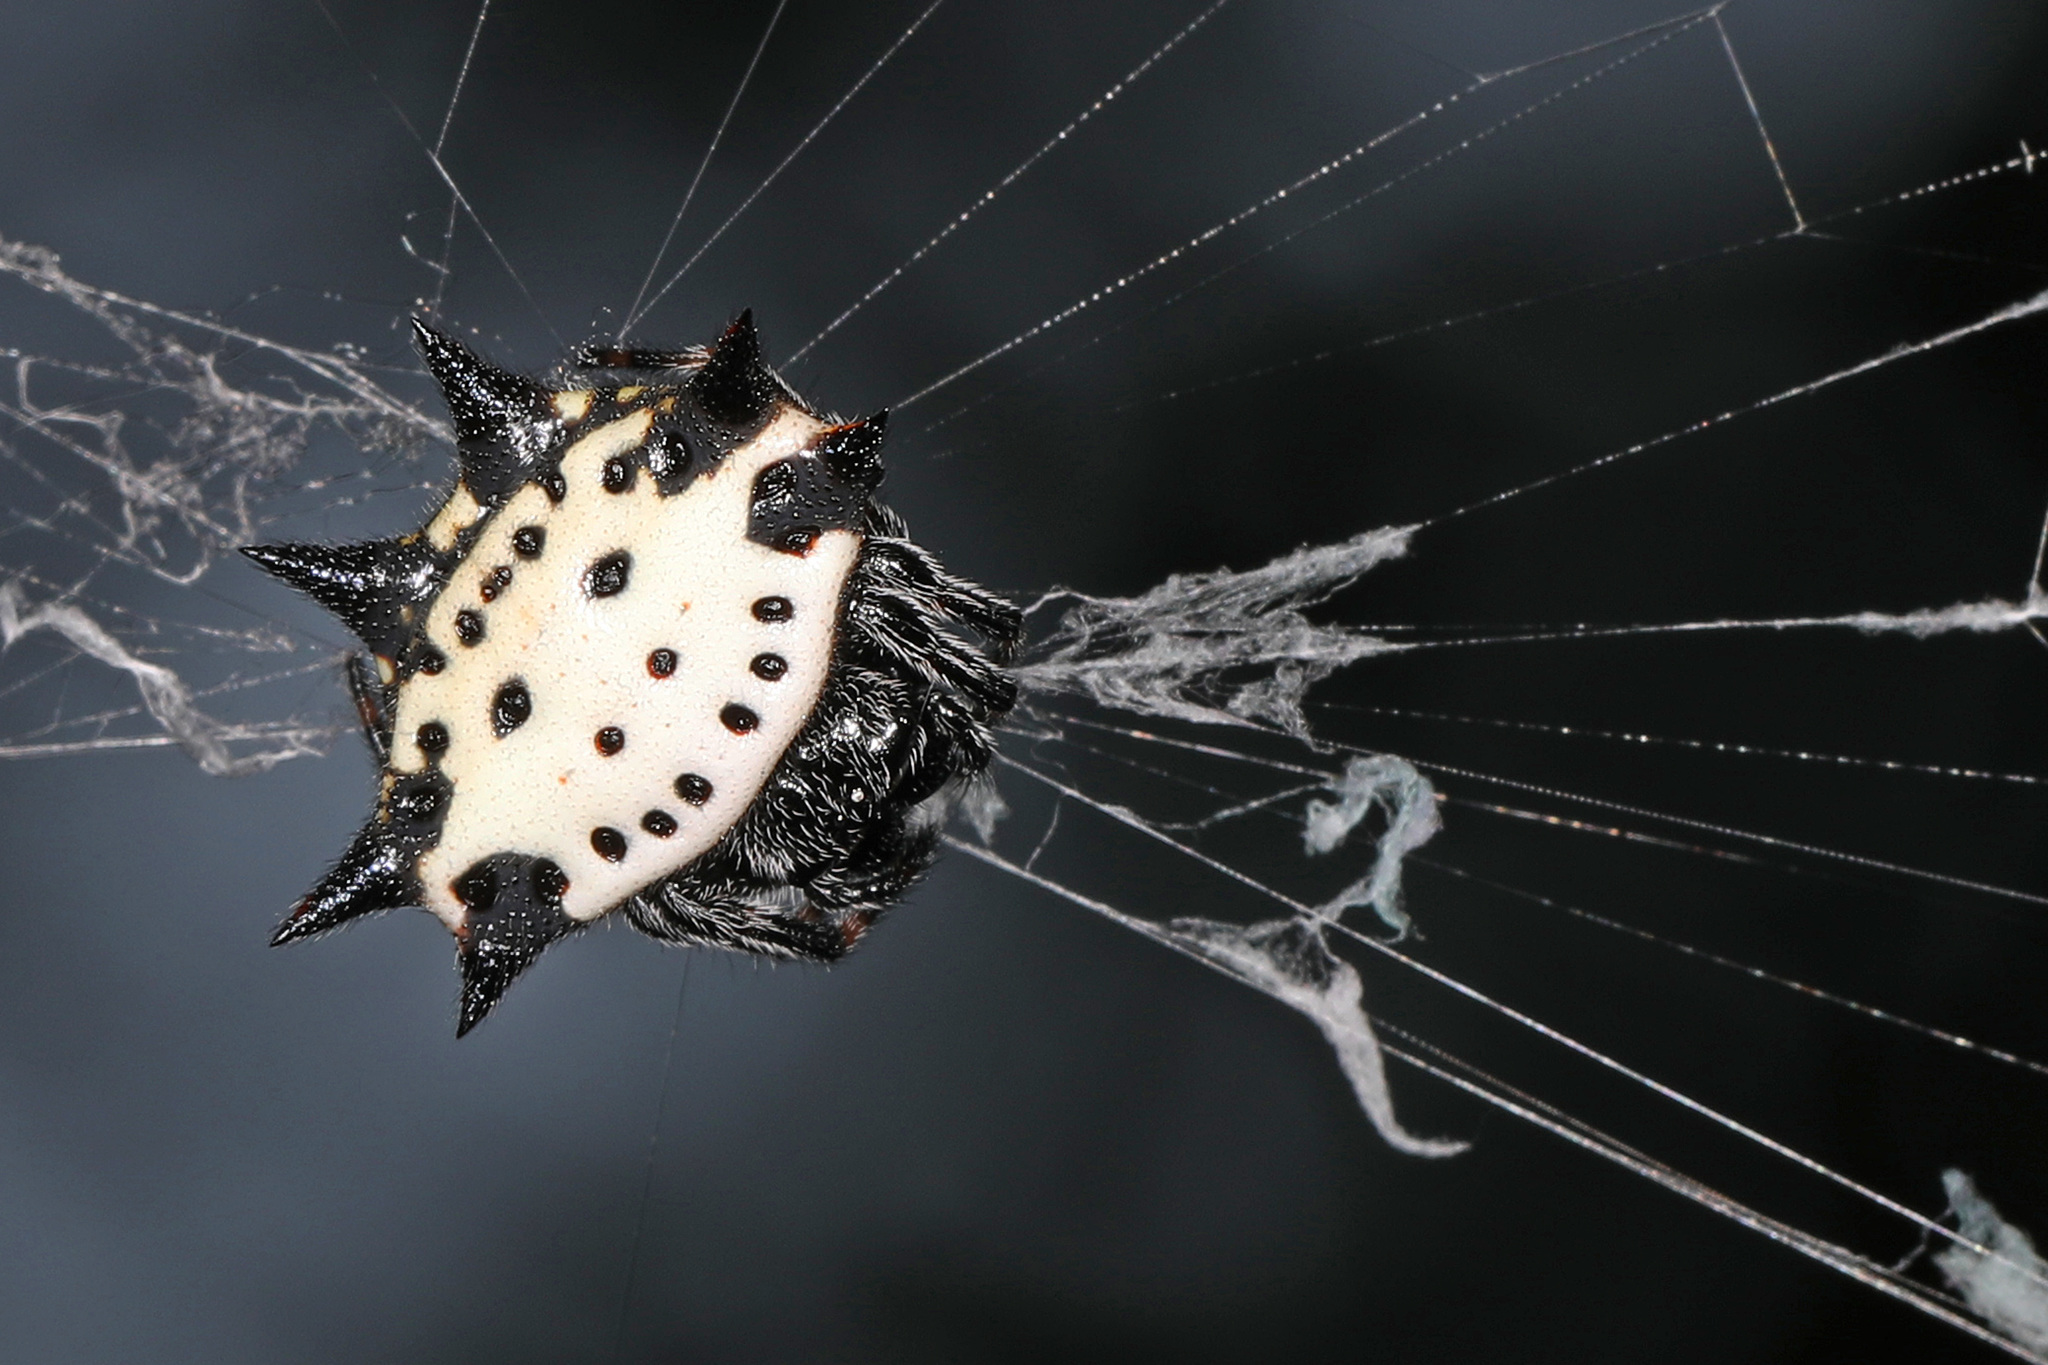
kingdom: Animalia
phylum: Arthropoda
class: Arachnida
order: Araneae
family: Araneidae
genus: Gasteracantha
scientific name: Gasteracantha cancriformis
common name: Orb weavers
